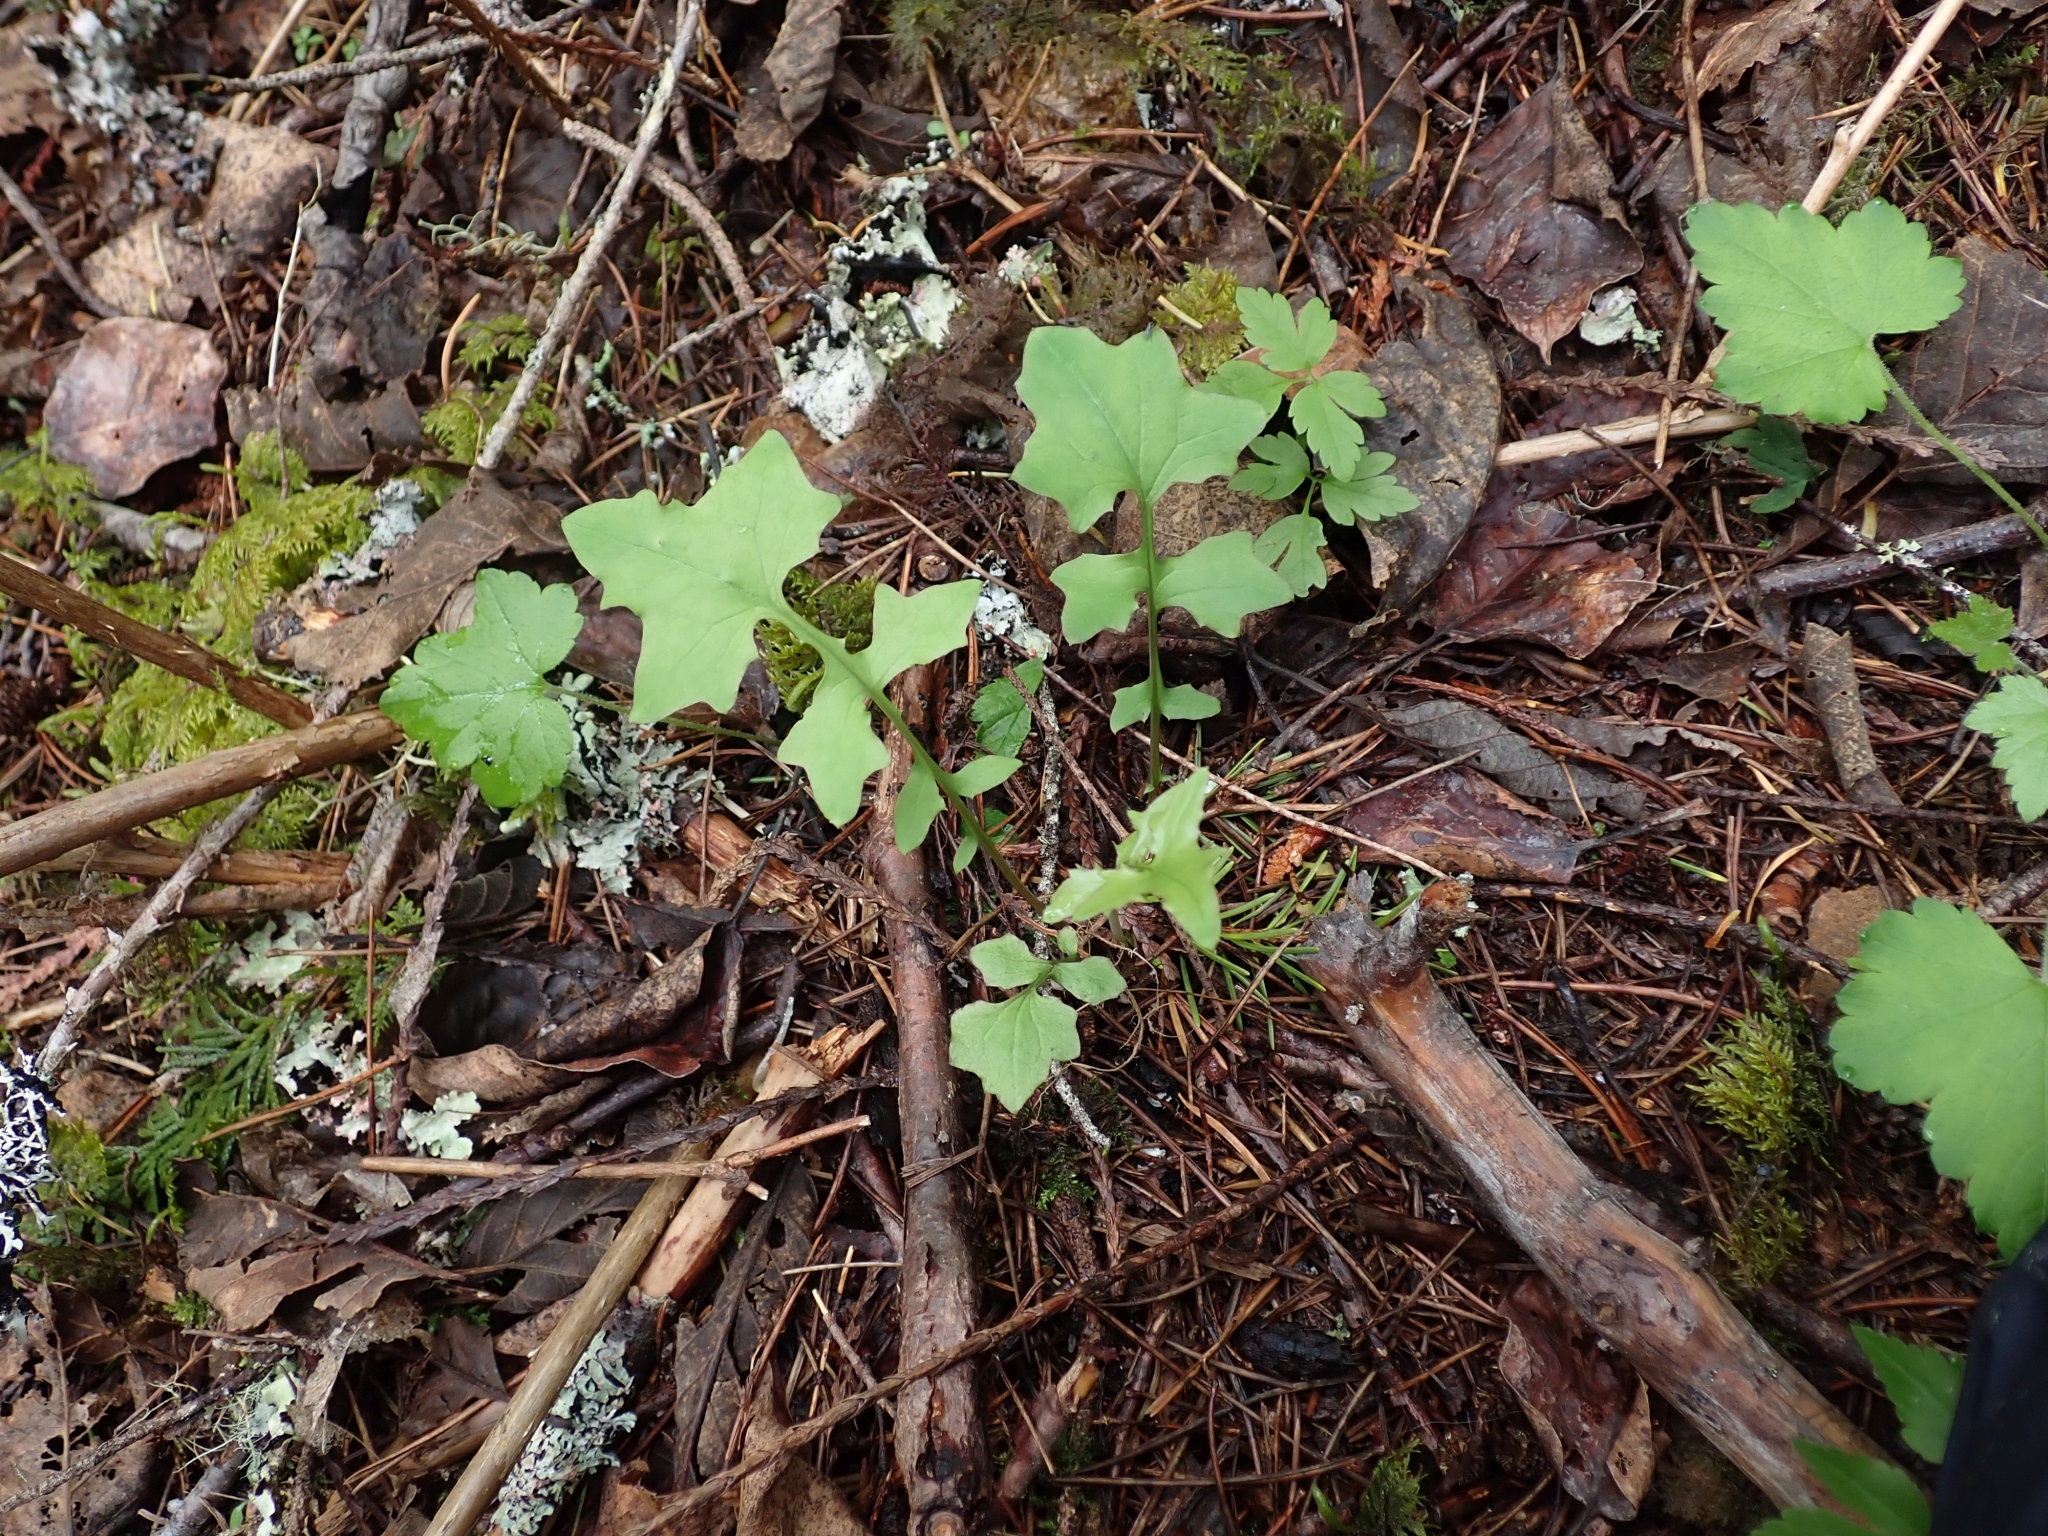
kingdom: Plantae
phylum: Tracheophyta
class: Magnoliopsida
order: Asterales
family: Asteraceae
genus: Mycelis
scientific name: Mycelis muralis
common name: Wall lettuce
